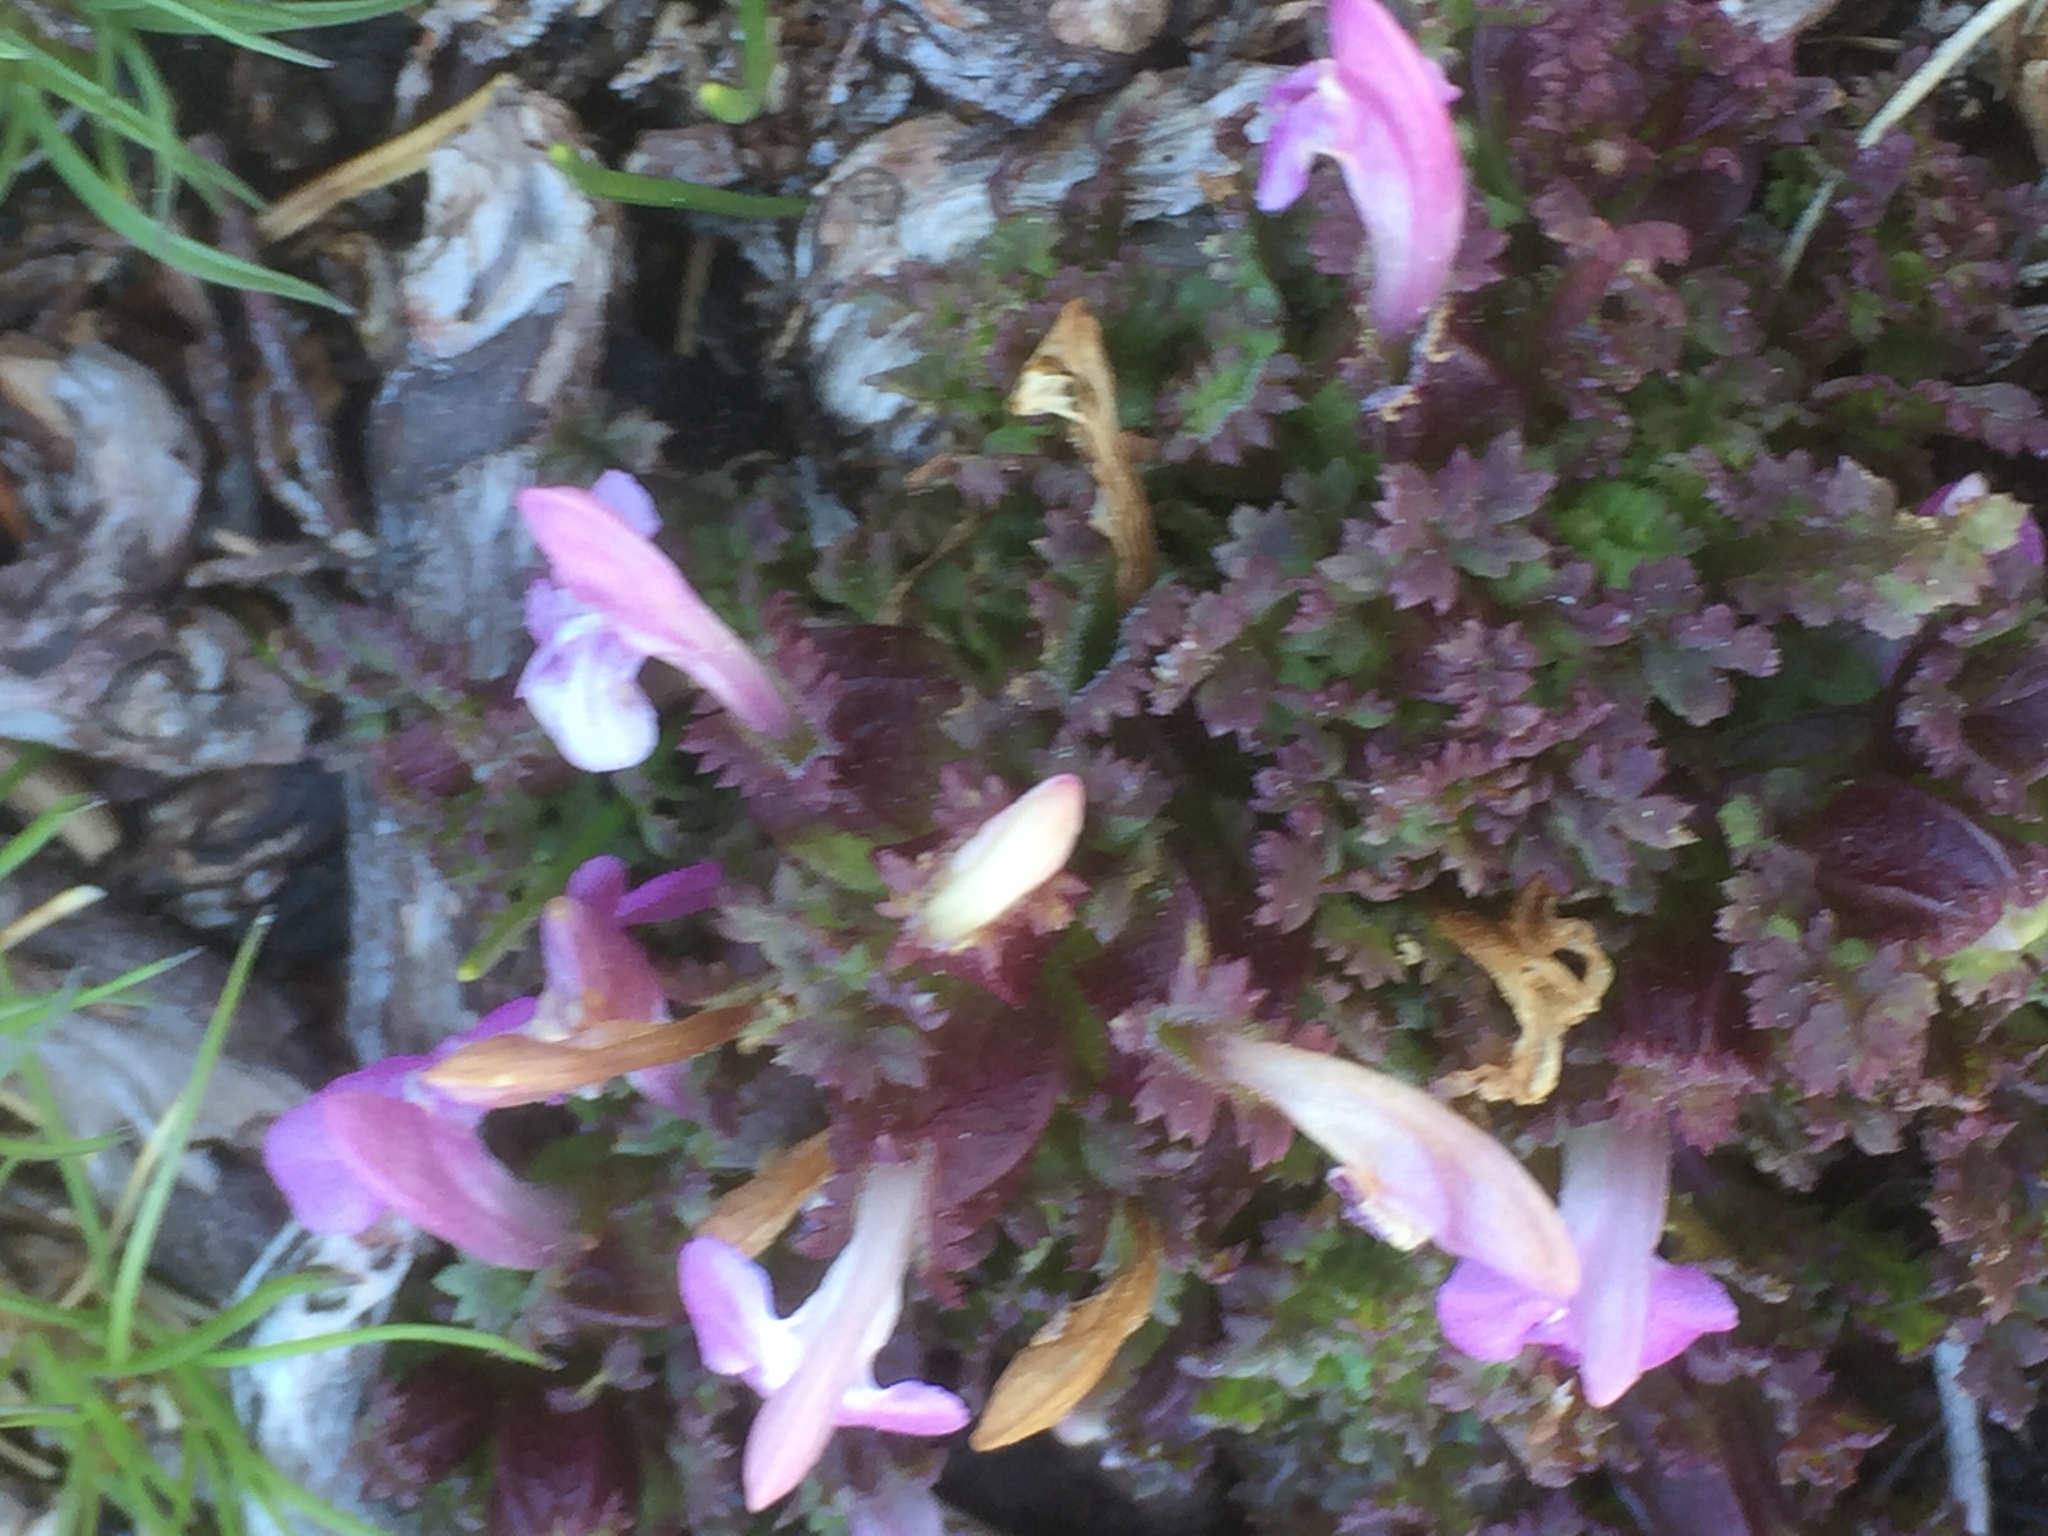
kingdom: Plantae
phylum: Tracheophyta
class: Magnoliopsida
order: Lamiales
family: Orobanchaceae
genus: Pedicularis
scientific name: Pedicularis sylvatica
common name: Lousewort
